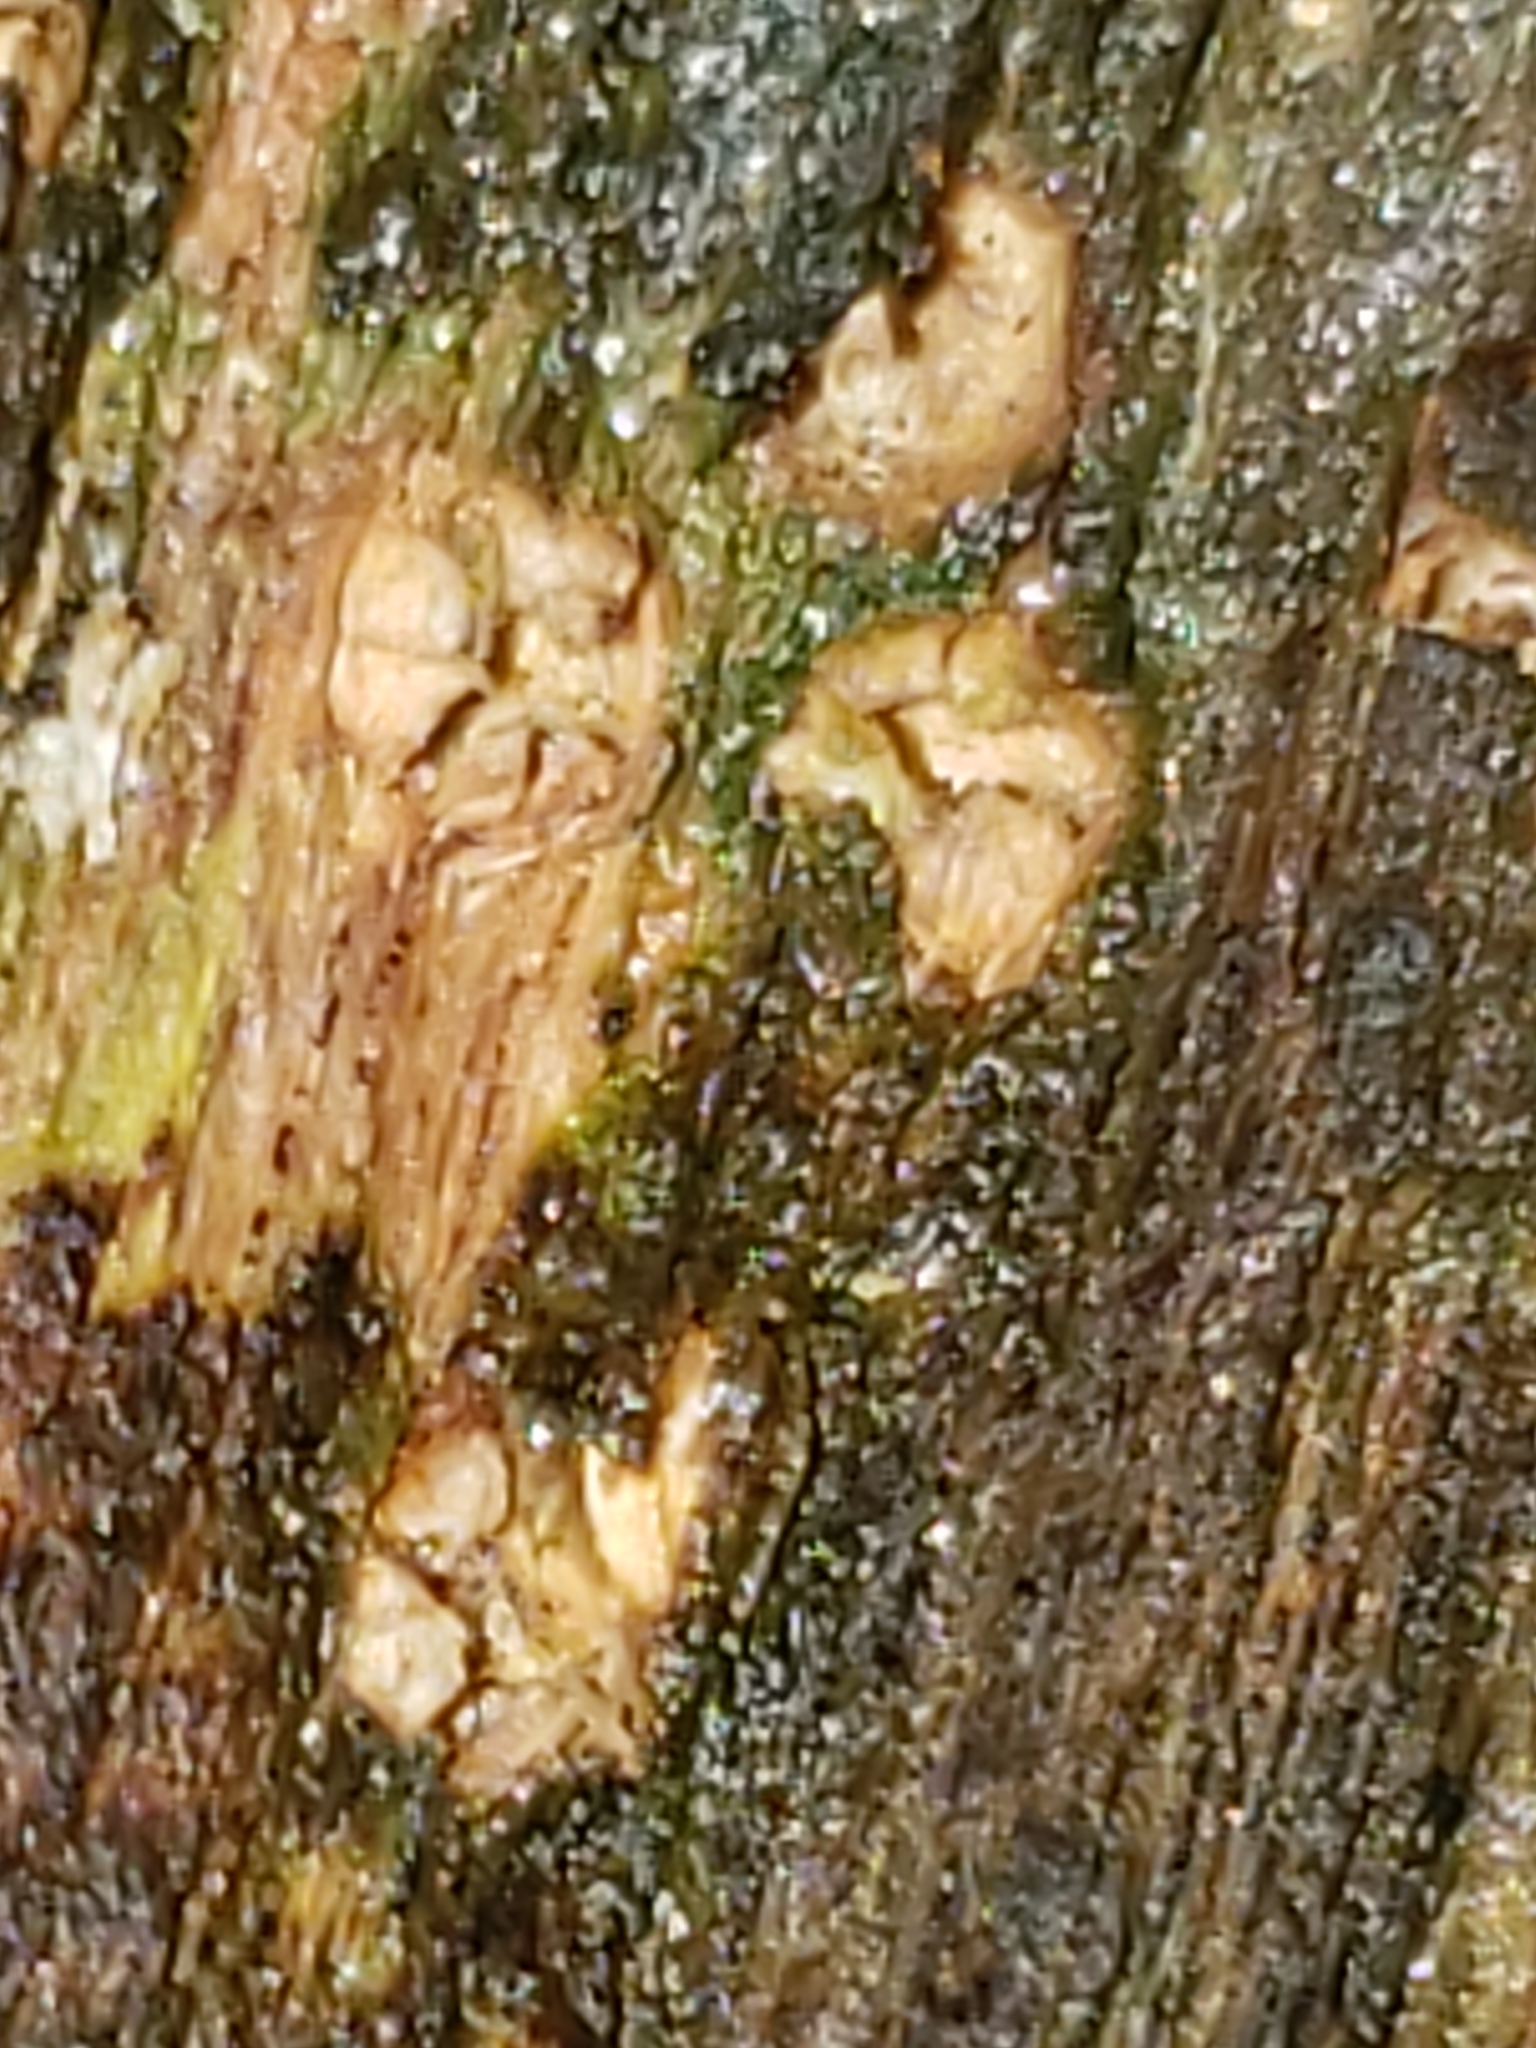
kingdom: Fungi
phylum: Basidiomycota
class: Agaricomycetes
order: Geastrales
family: Geastraceae
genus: Sphaerobolus
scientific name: Sphaerobolus stellatus
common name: Cannon fungus
